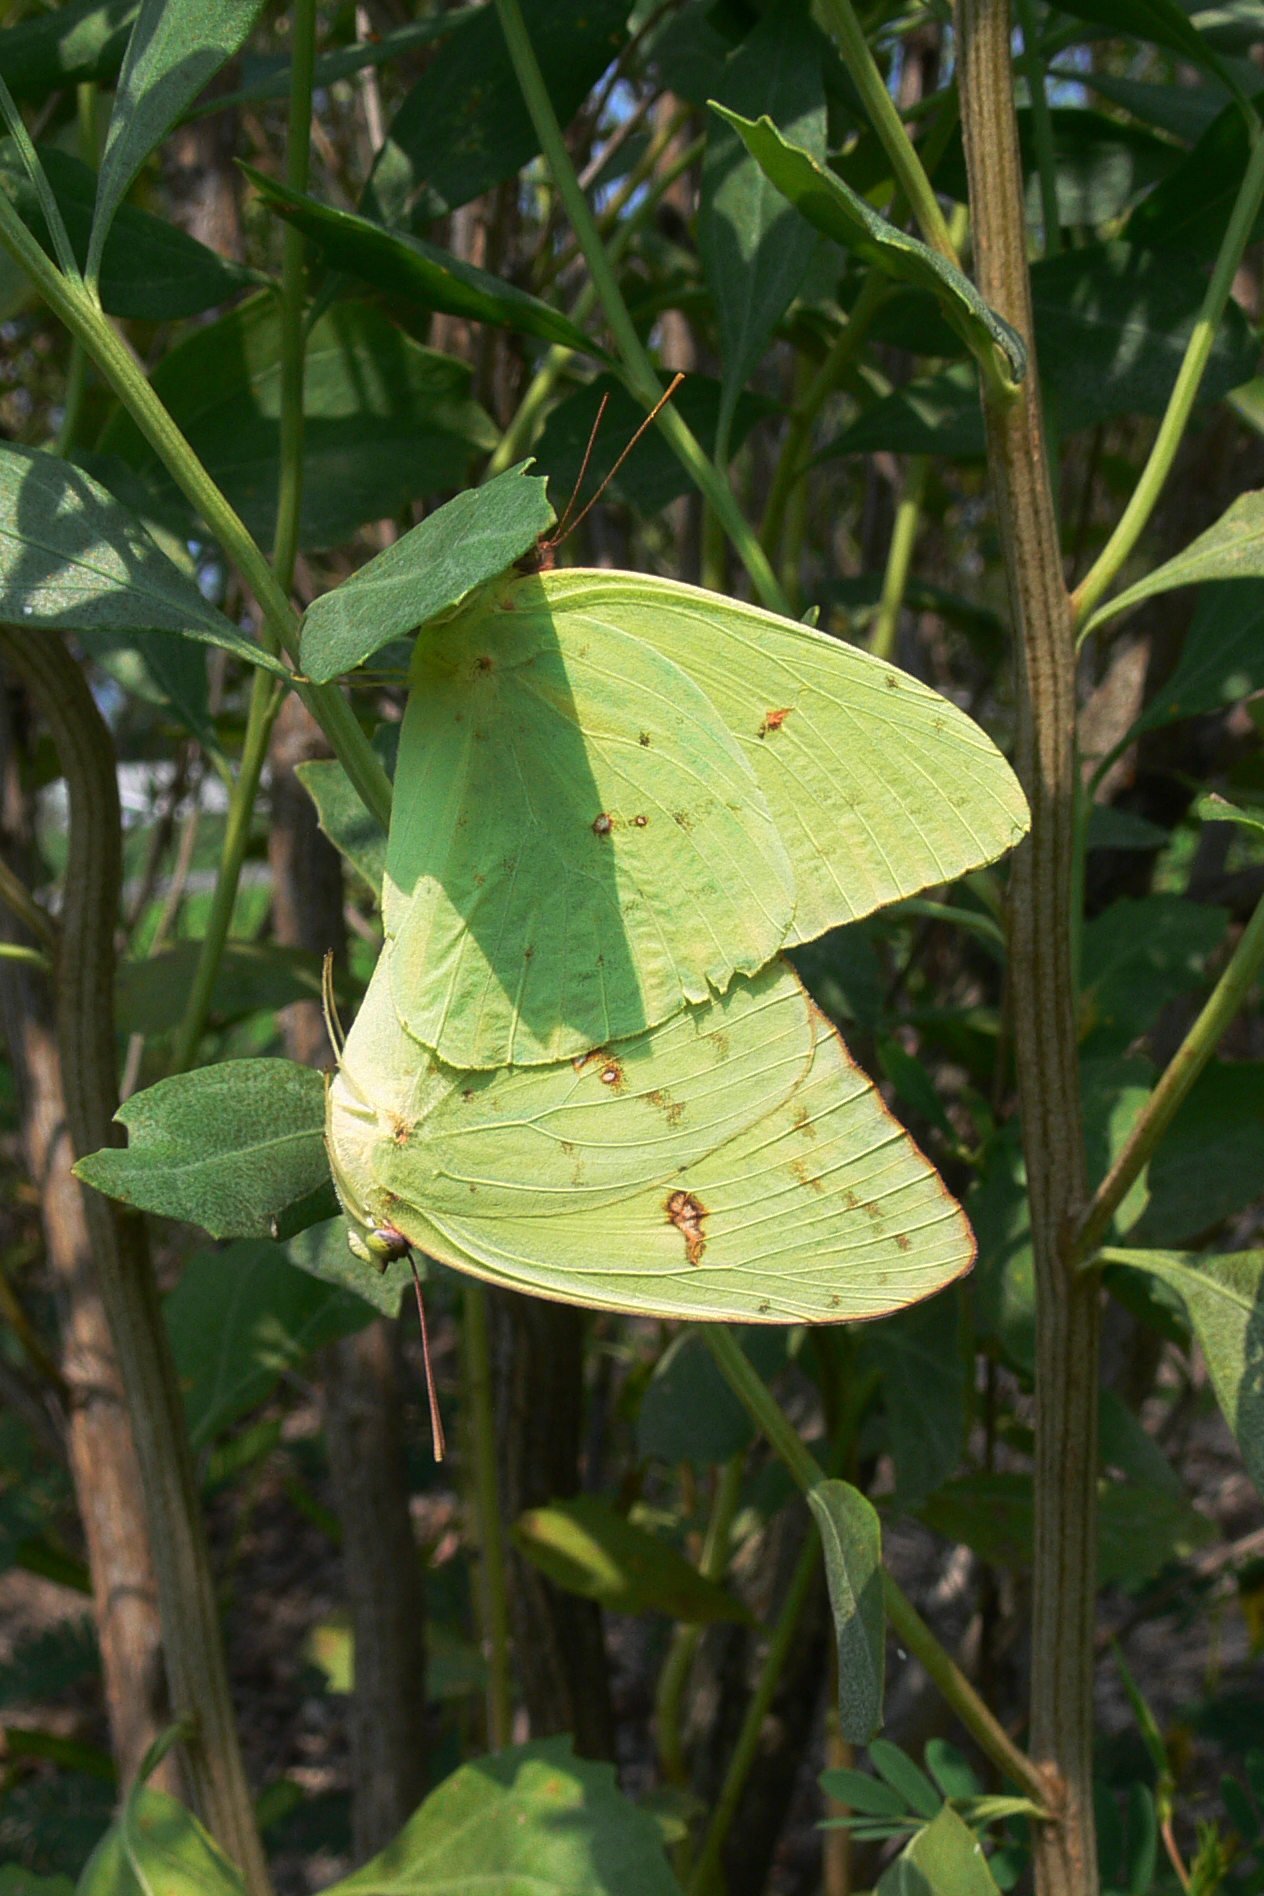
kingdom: Animalia
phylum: Arthropoda
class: Insecta
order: Lepidoptera
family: Pieridae
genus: Phoebis
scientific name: Phoebis sennae
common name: Cloudless sulphur
